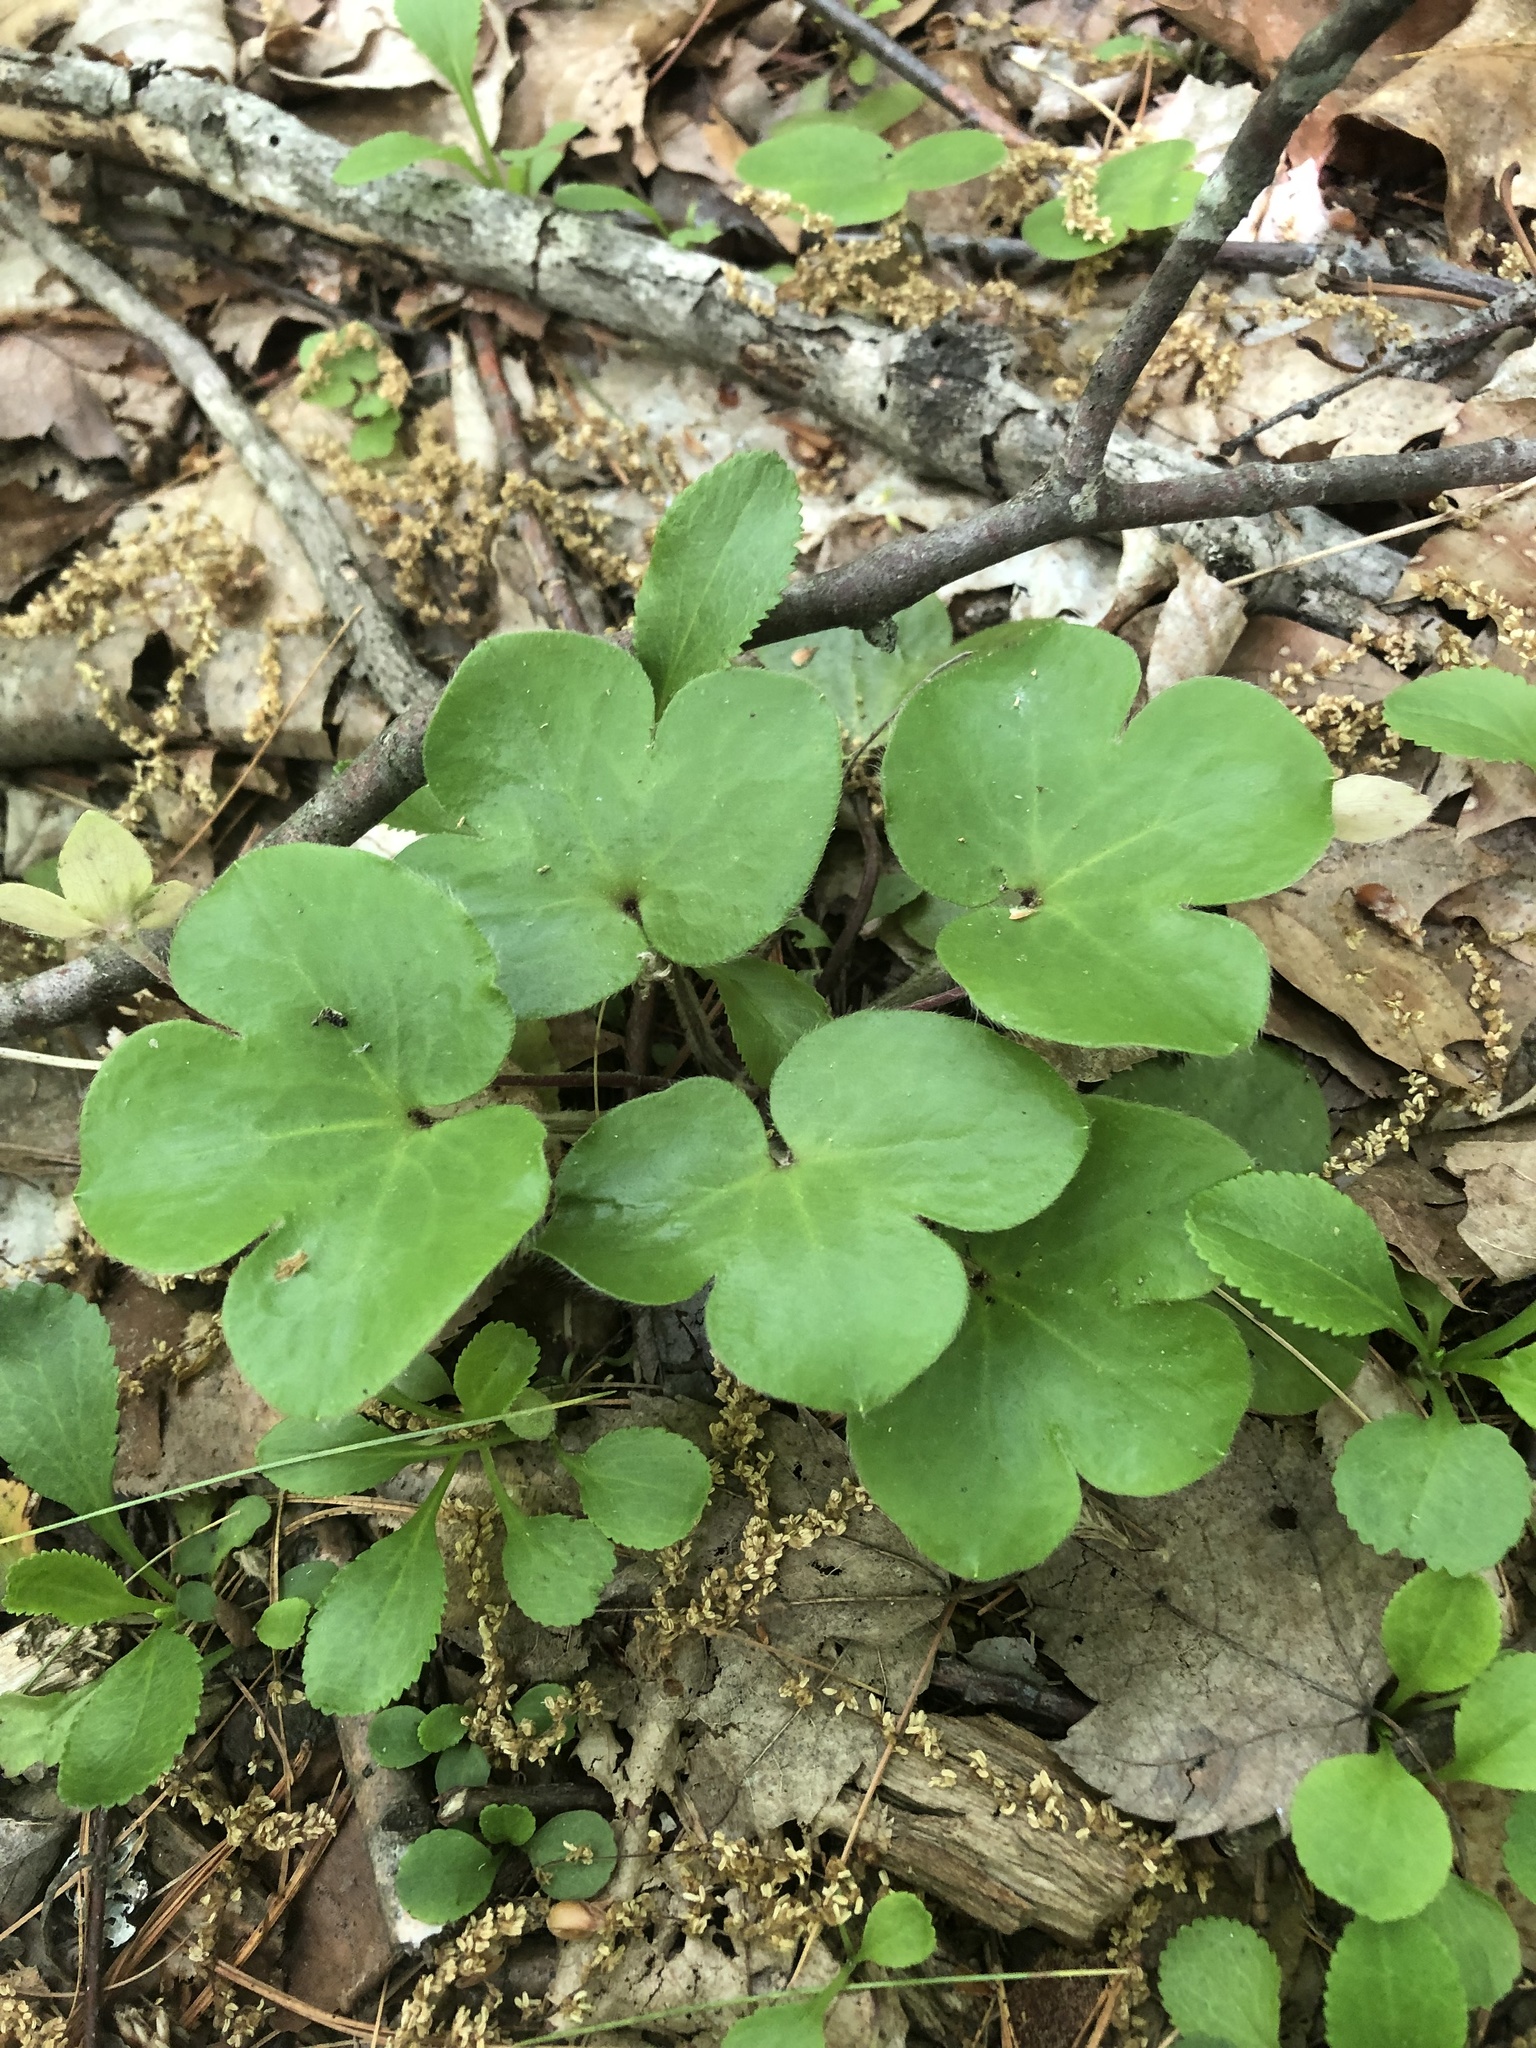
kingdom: Plantae
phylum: Tracheophyta
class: Magnoliopsida
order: Ranunculales
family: Ranunculaceae
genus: Hepatica
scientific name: Hepatica americana
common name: American hepatica
